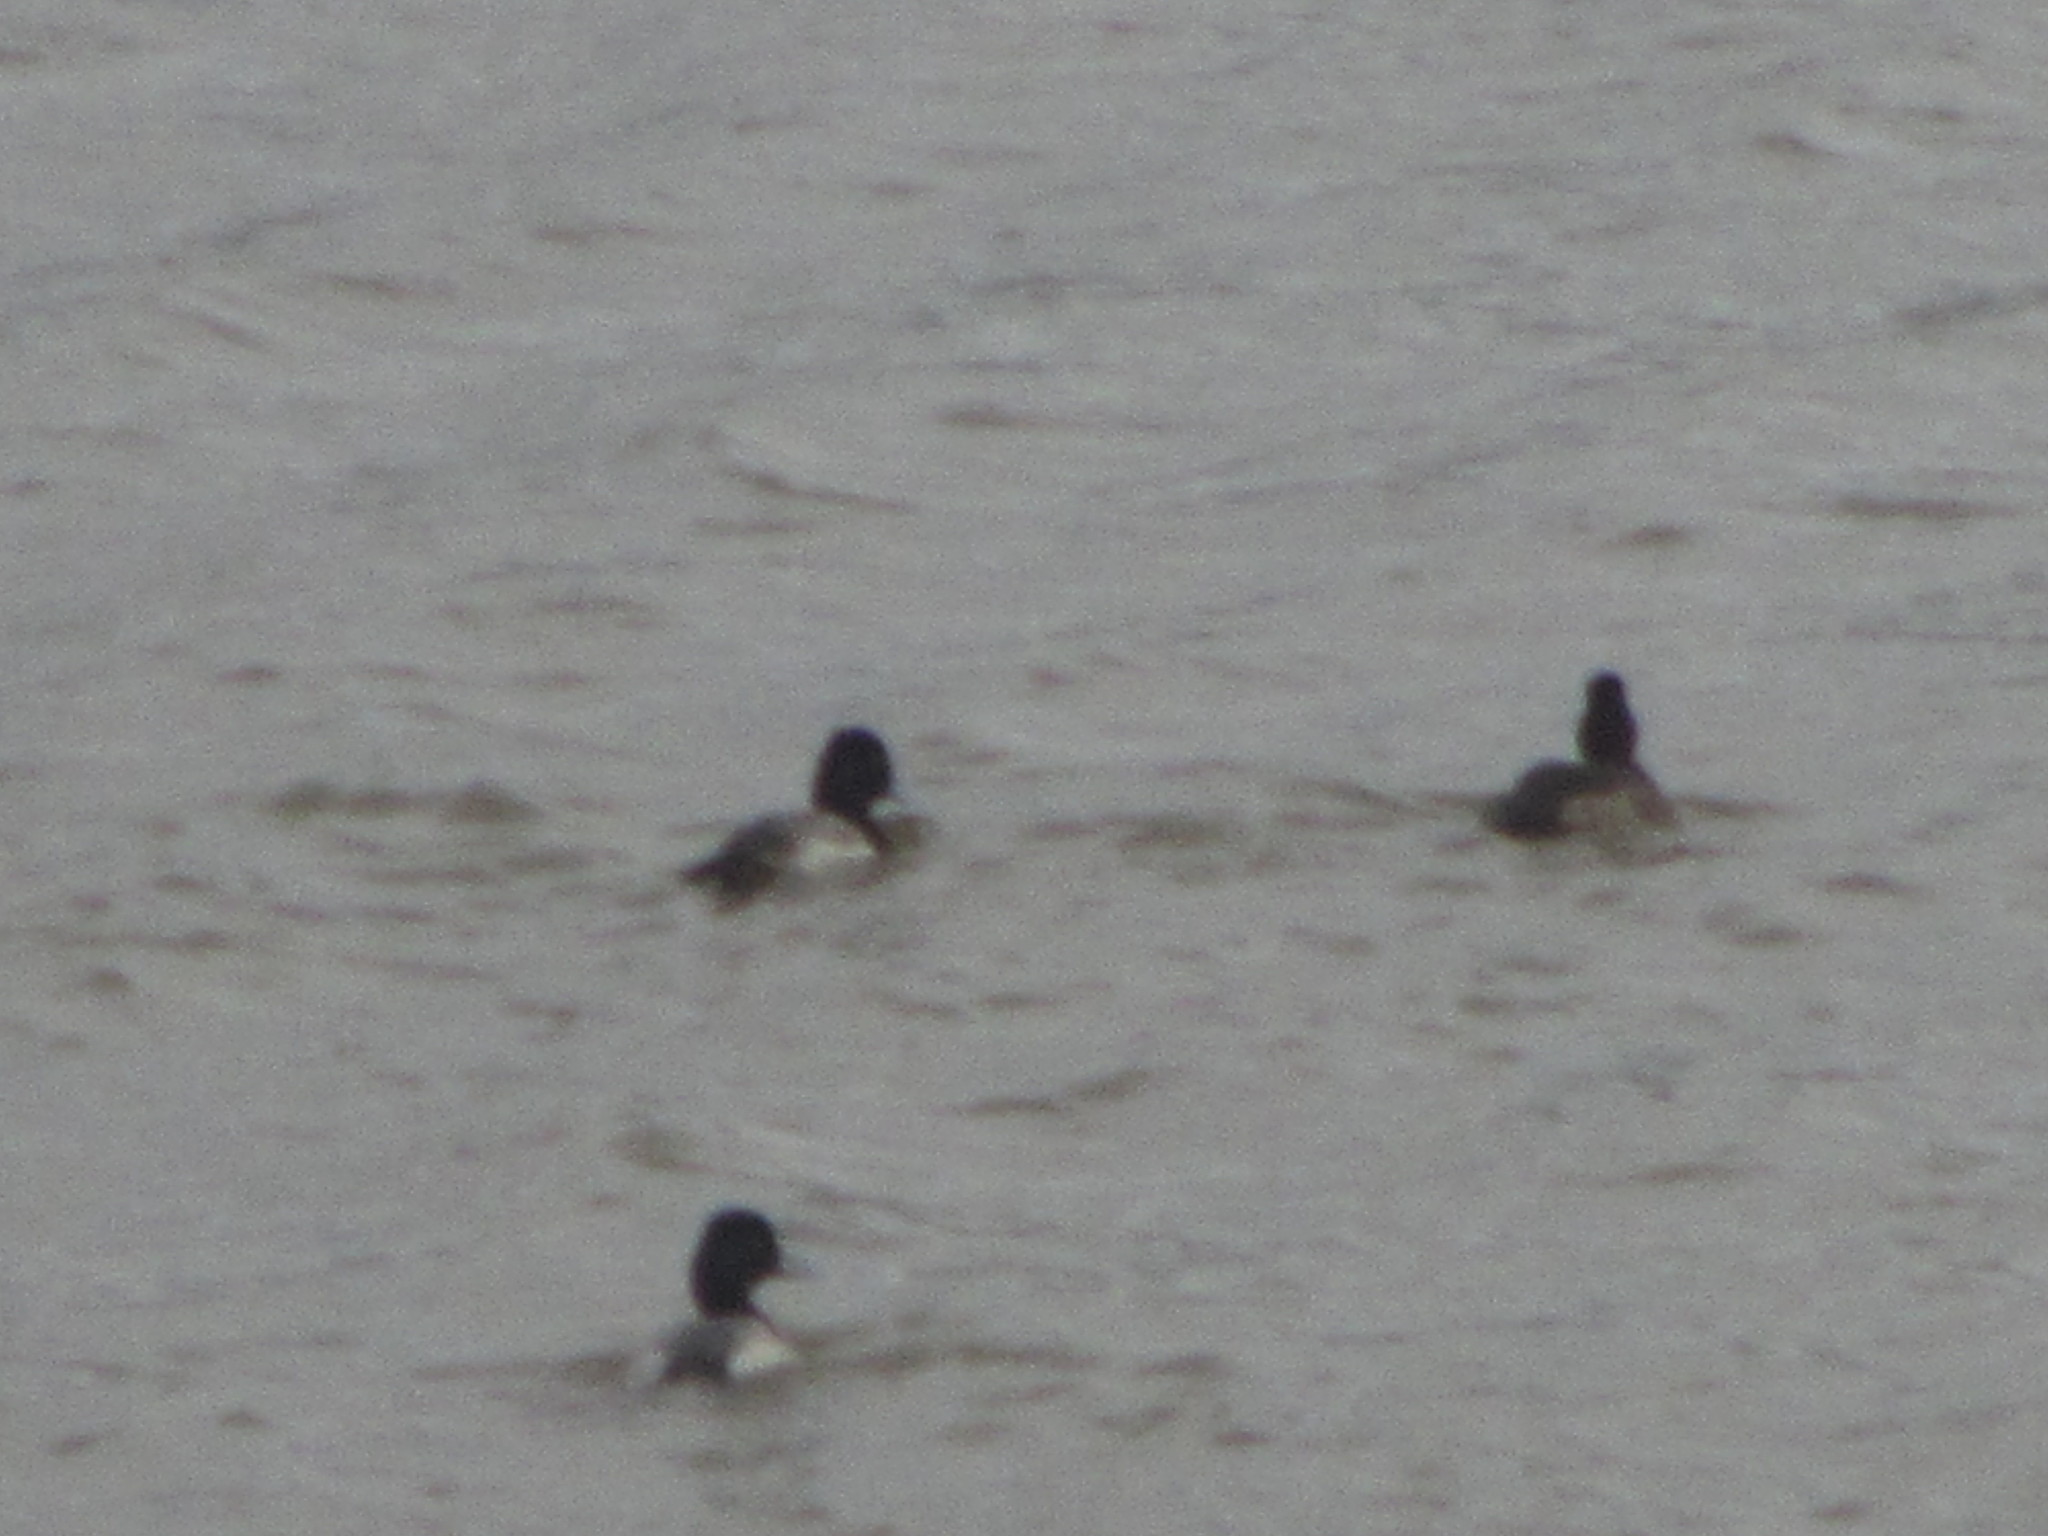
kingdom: Animalia
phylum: Chordata
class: Aves
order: Anseriformes
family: Anatidae
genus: Aythya
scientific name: Aythya affinis
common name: Lesser scaup
